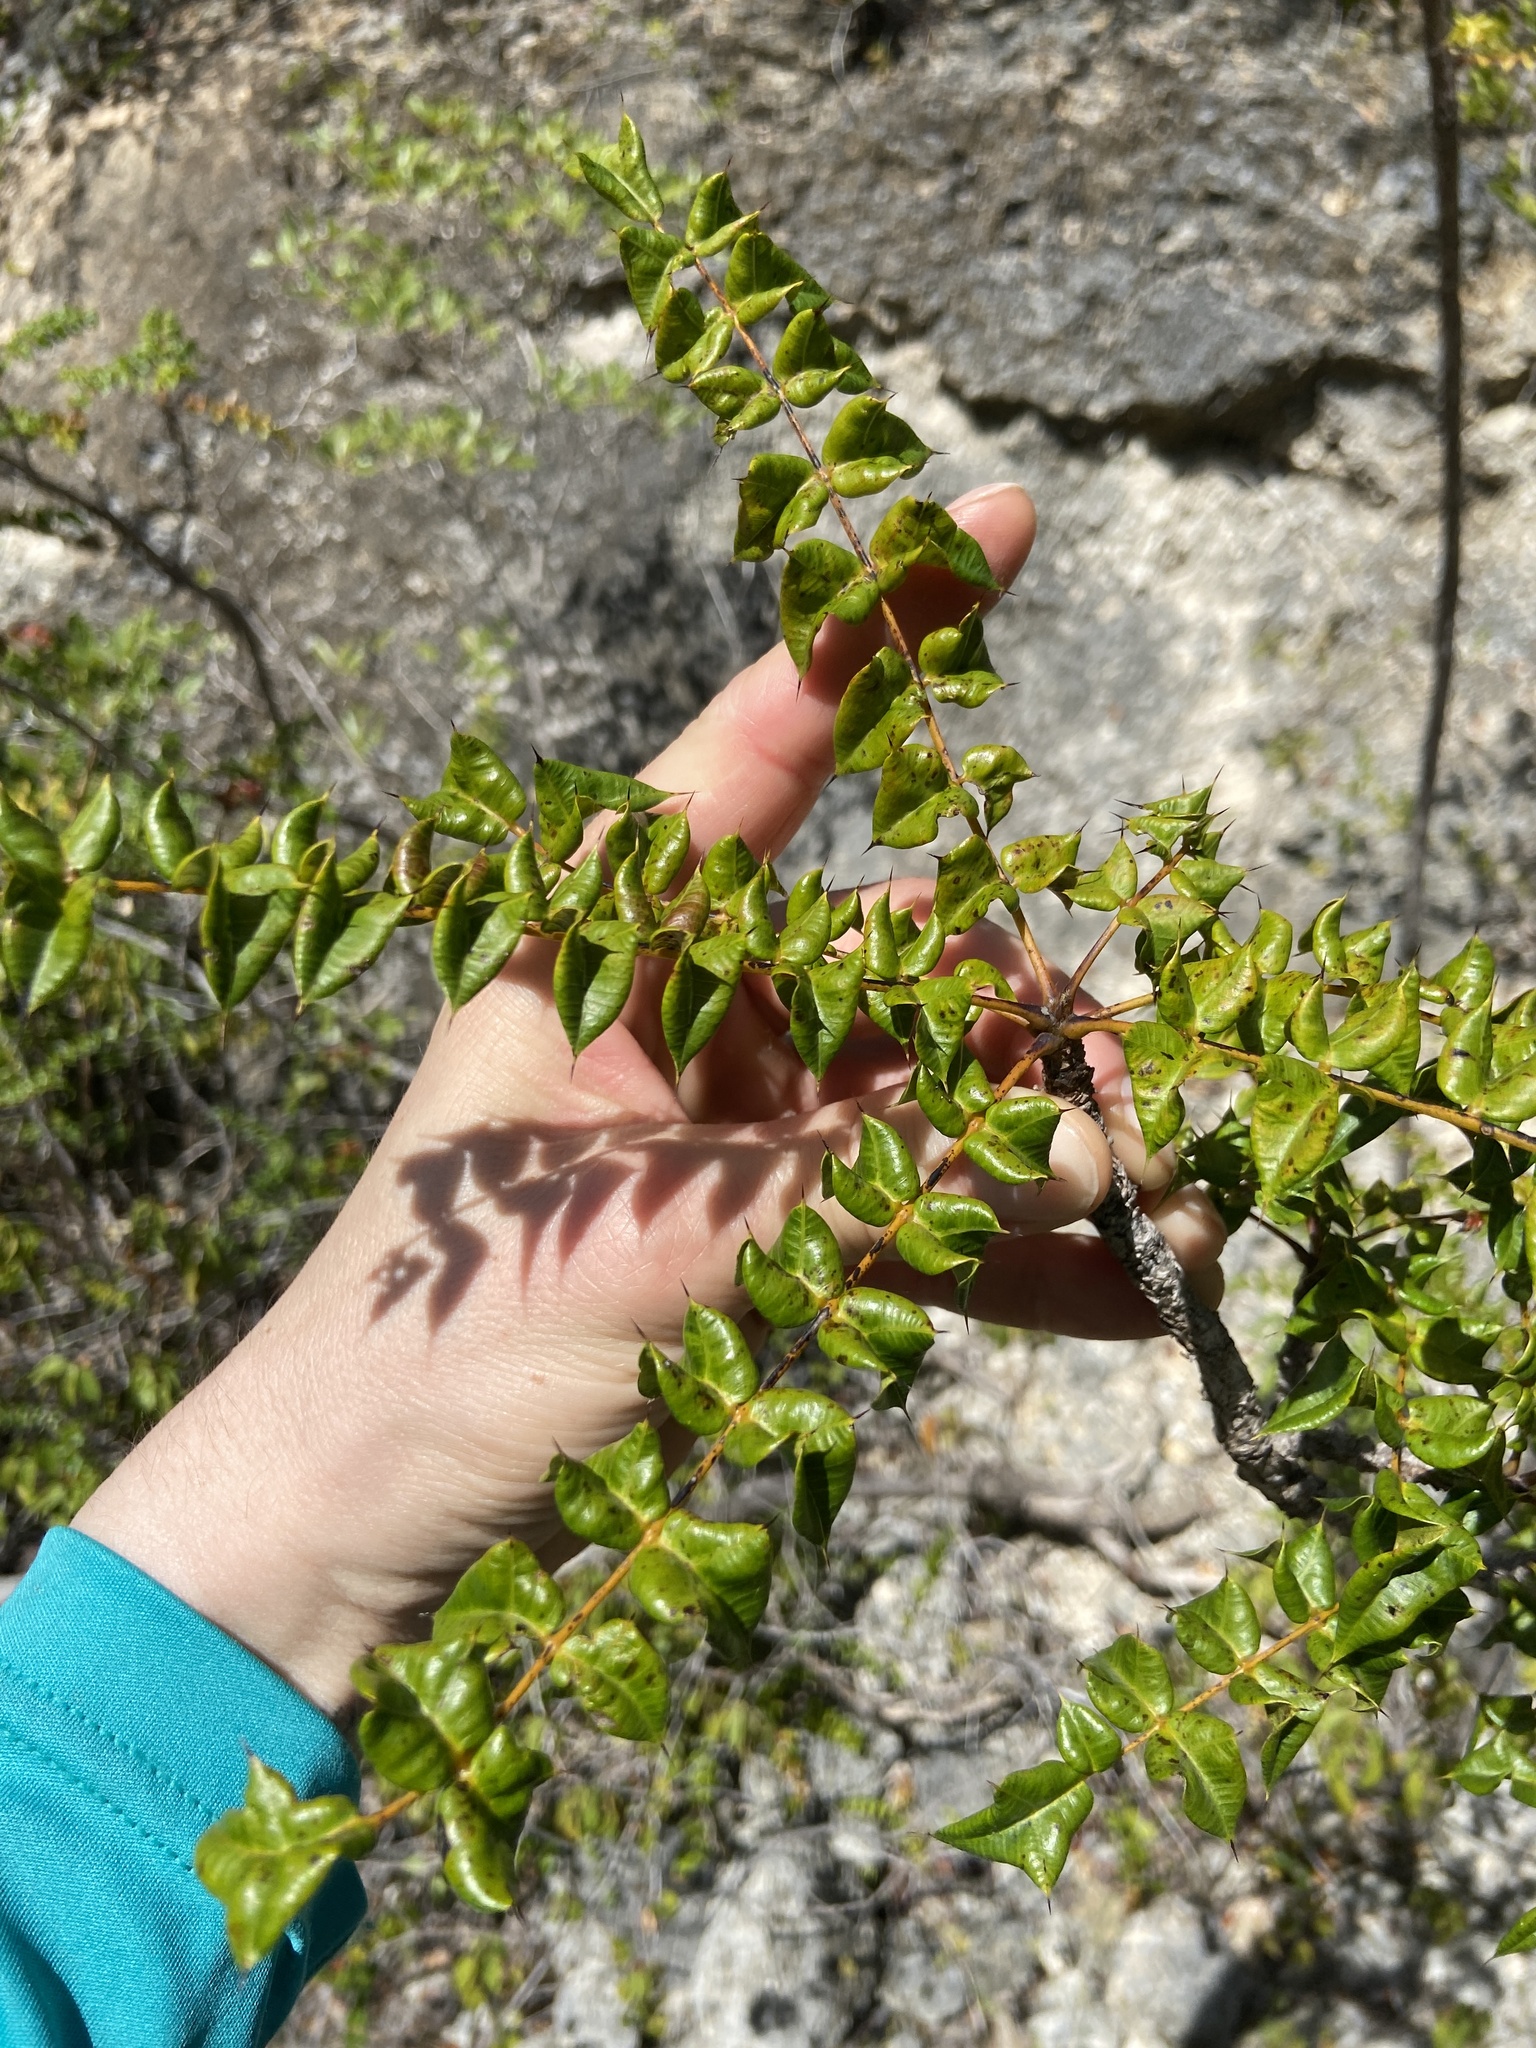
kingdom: Plantae
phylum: Tracheophyta
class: Magnoliopsida
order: Sapindales
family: Anacardiaceae
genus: Comocladia
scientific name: Comocladia dodonaea
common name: Poison ash
